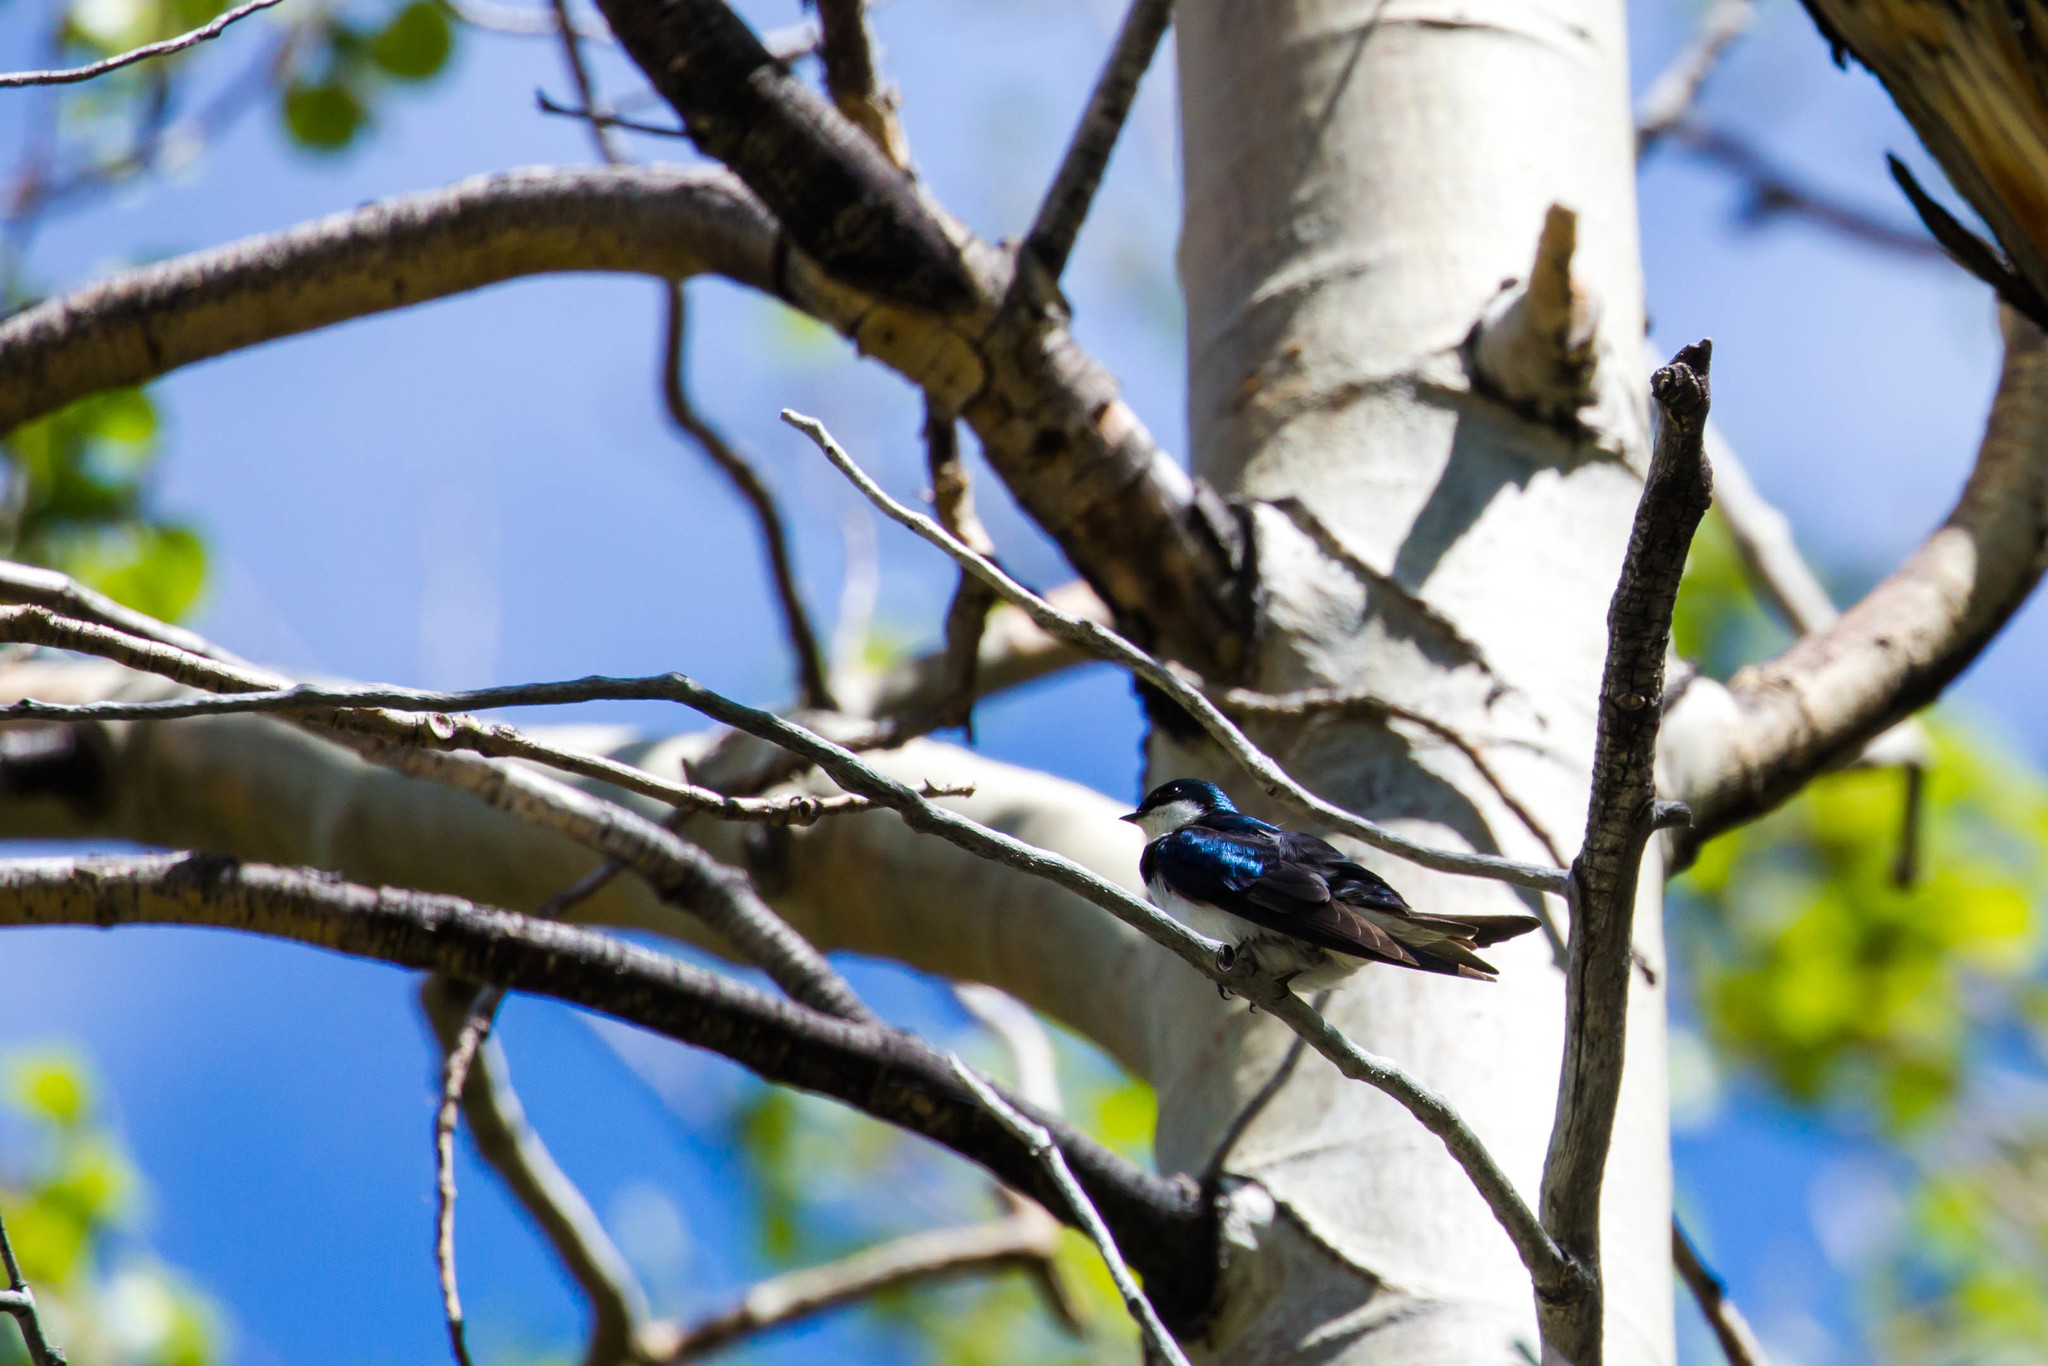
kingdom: Animalia
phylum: Chordata
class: Aves
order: Passeriformes
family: Hirundinidae
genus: Tachycineta
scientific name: Tachycineta bicolor
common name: Tree swallow
